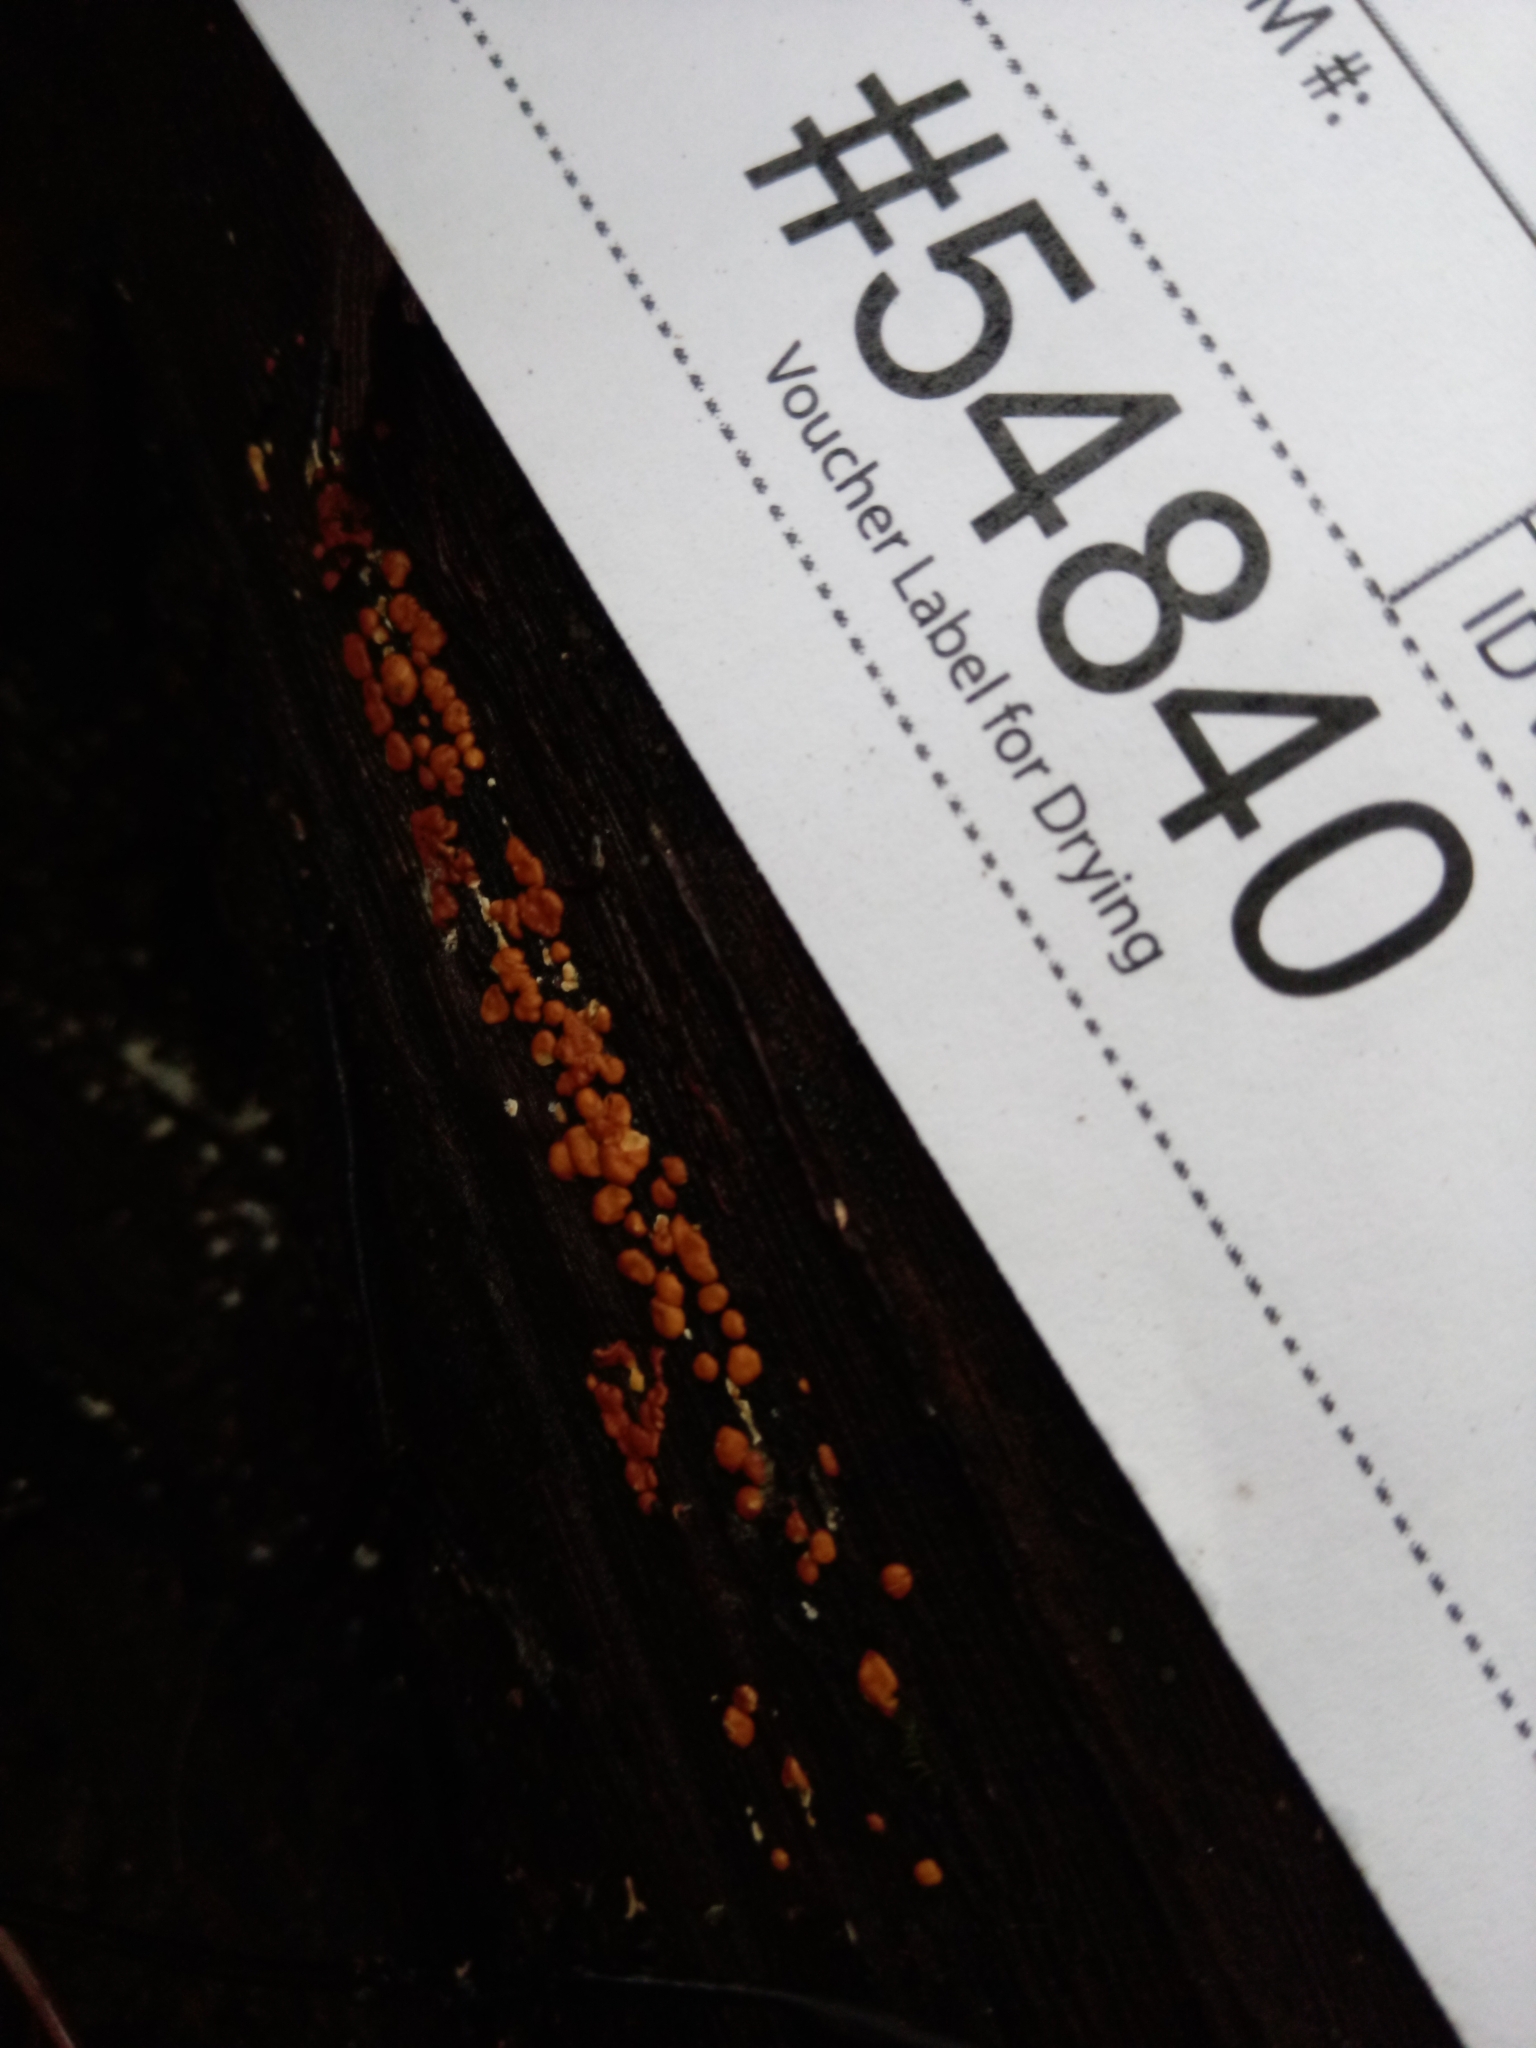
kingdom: Fungi
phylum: Ascomycota
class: Sordariomycetes
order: Hypocreales
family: Hypocreaceae
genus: Trichoderma
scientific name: Trichoderma atroviride
